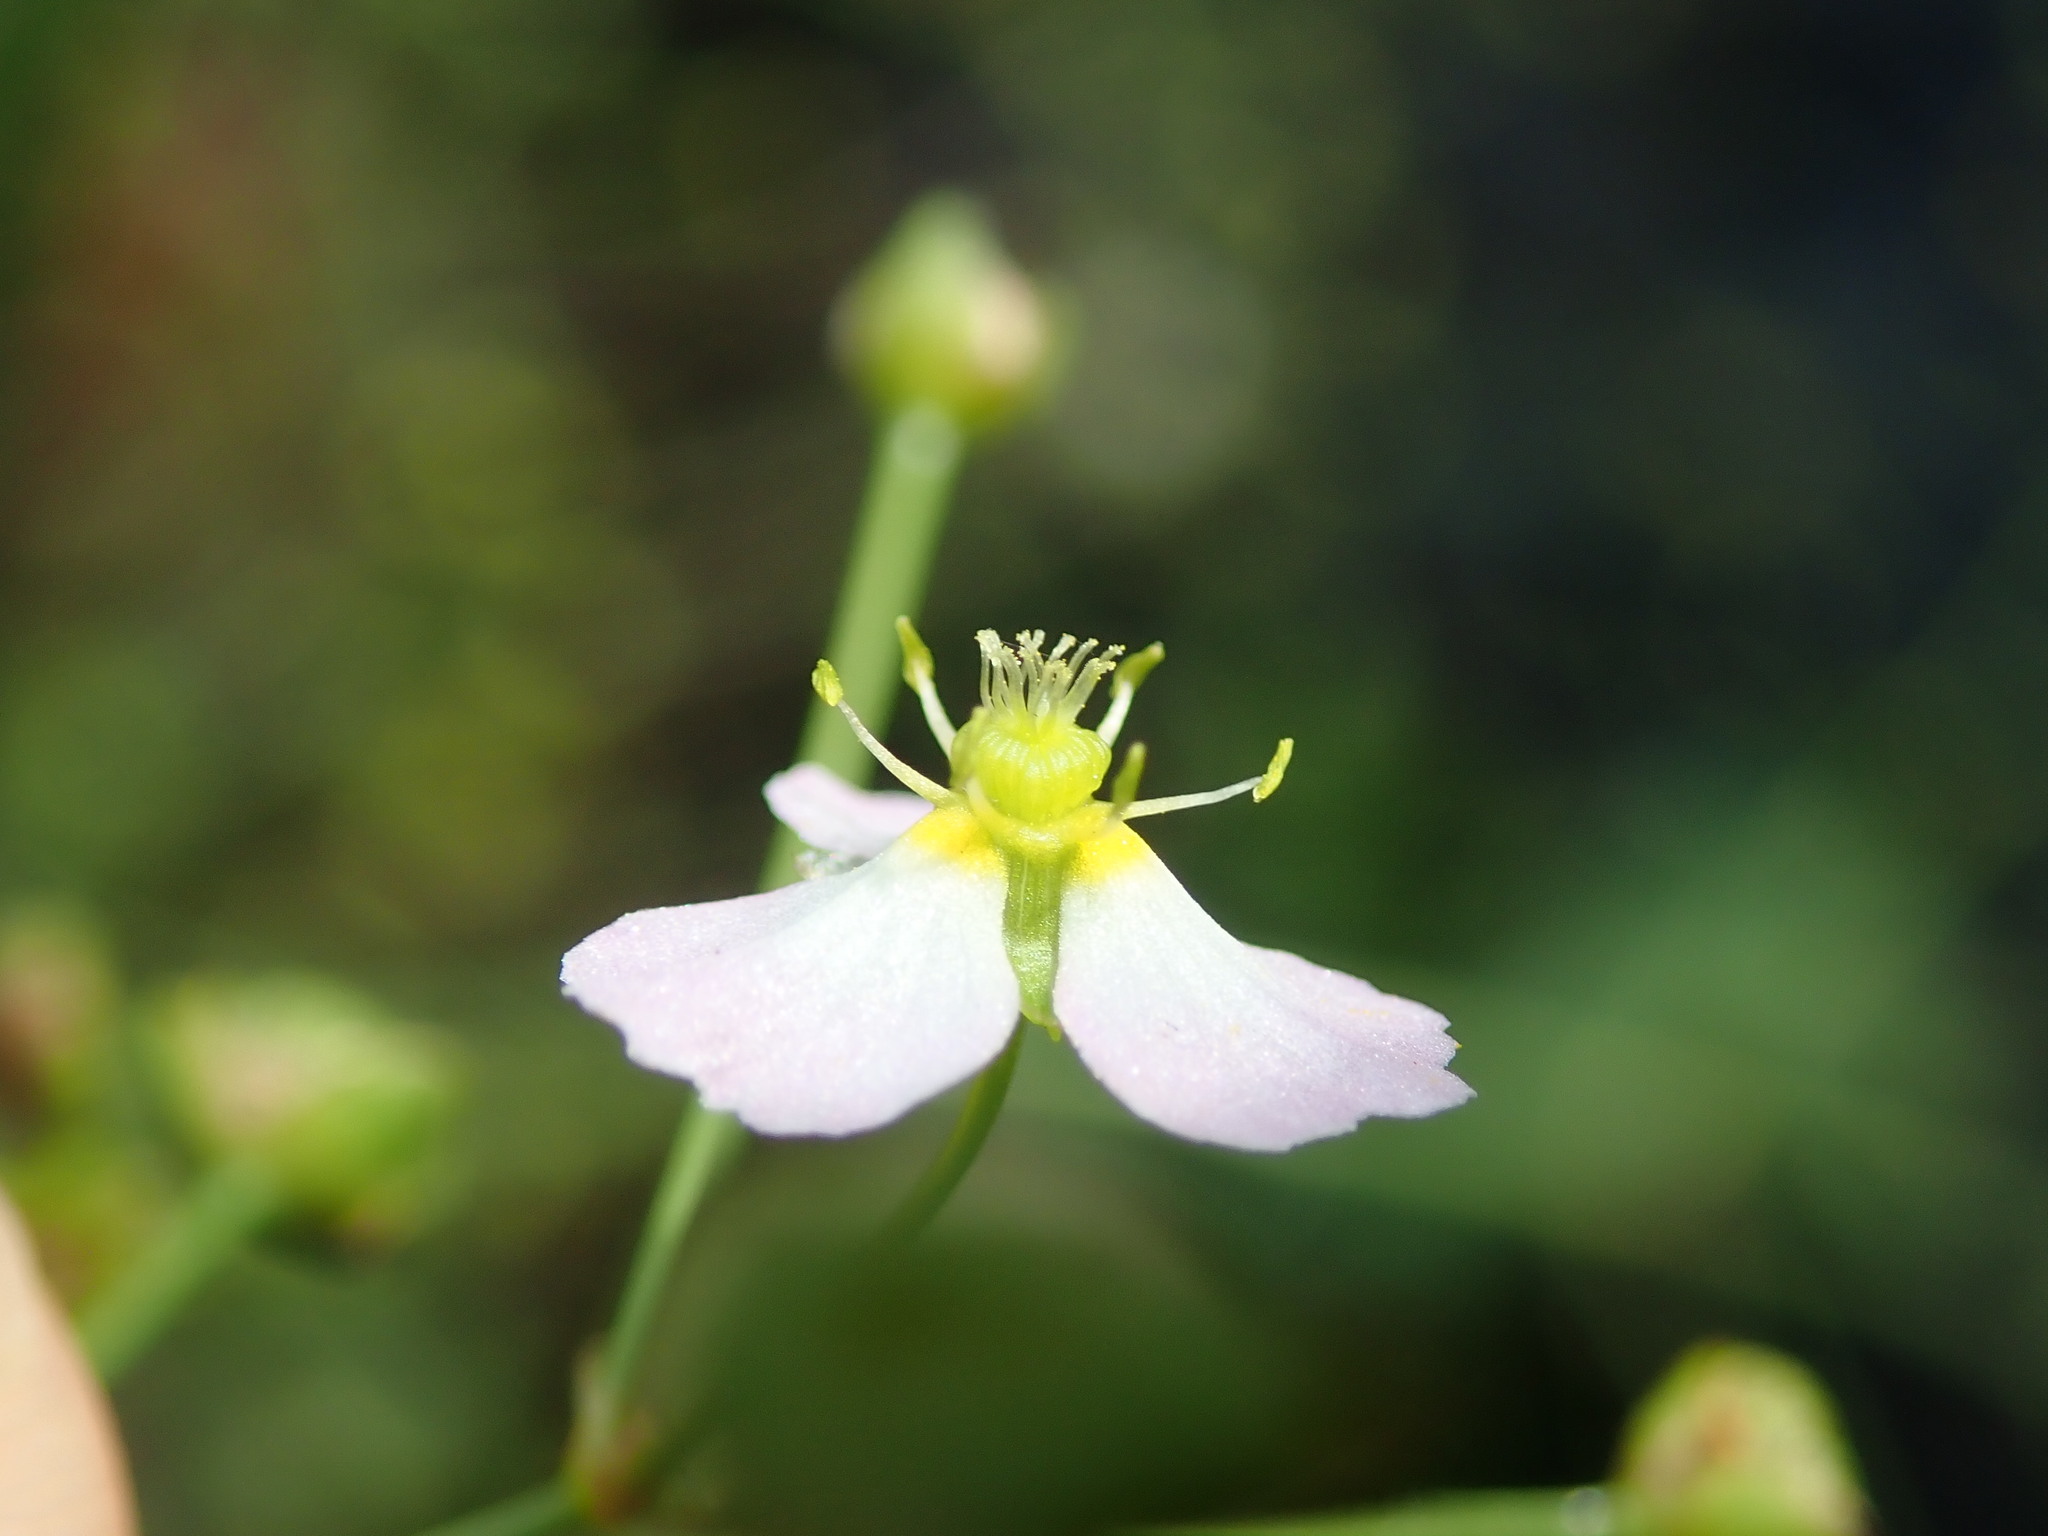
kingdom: Plantae
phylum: Tracheophyta
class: Liliopsida
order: Alismatales
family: Alismataceae
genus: Alisma
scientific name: Alisma plantago-aquatica
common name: Water-plantain
